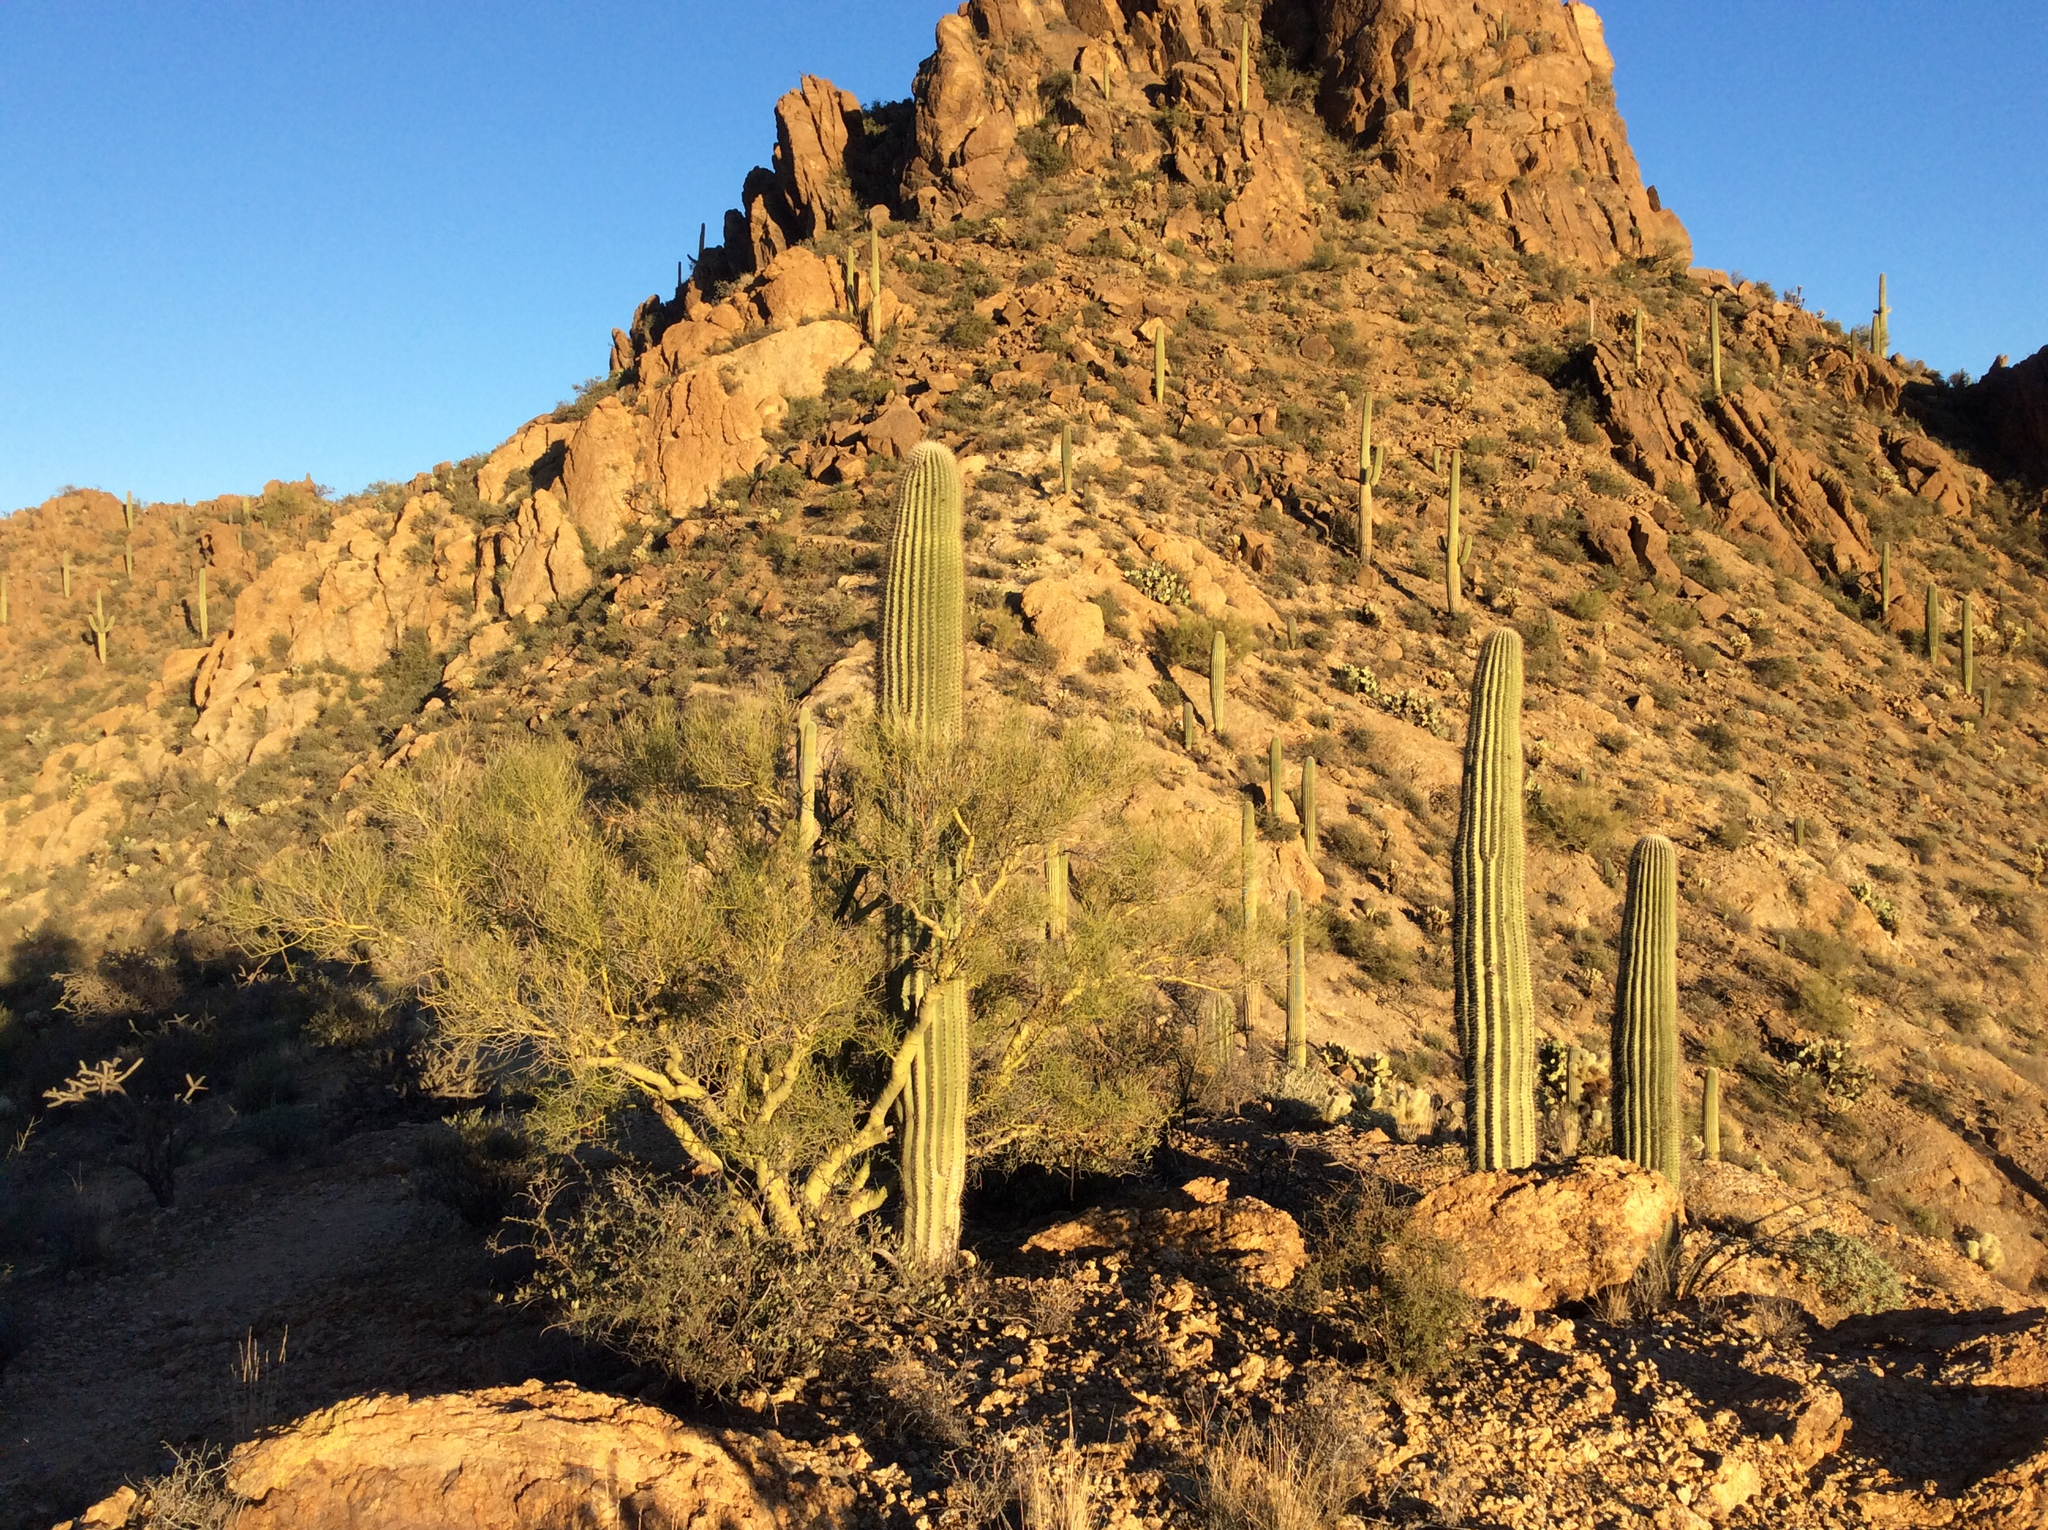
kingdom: Plantae
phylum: Tracheophyta
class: Magnoliopsida
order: Fabales
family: Fabaceae
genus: Parkinsonia
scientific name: Parkinsonia microphylla
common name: Yellow paloverde
